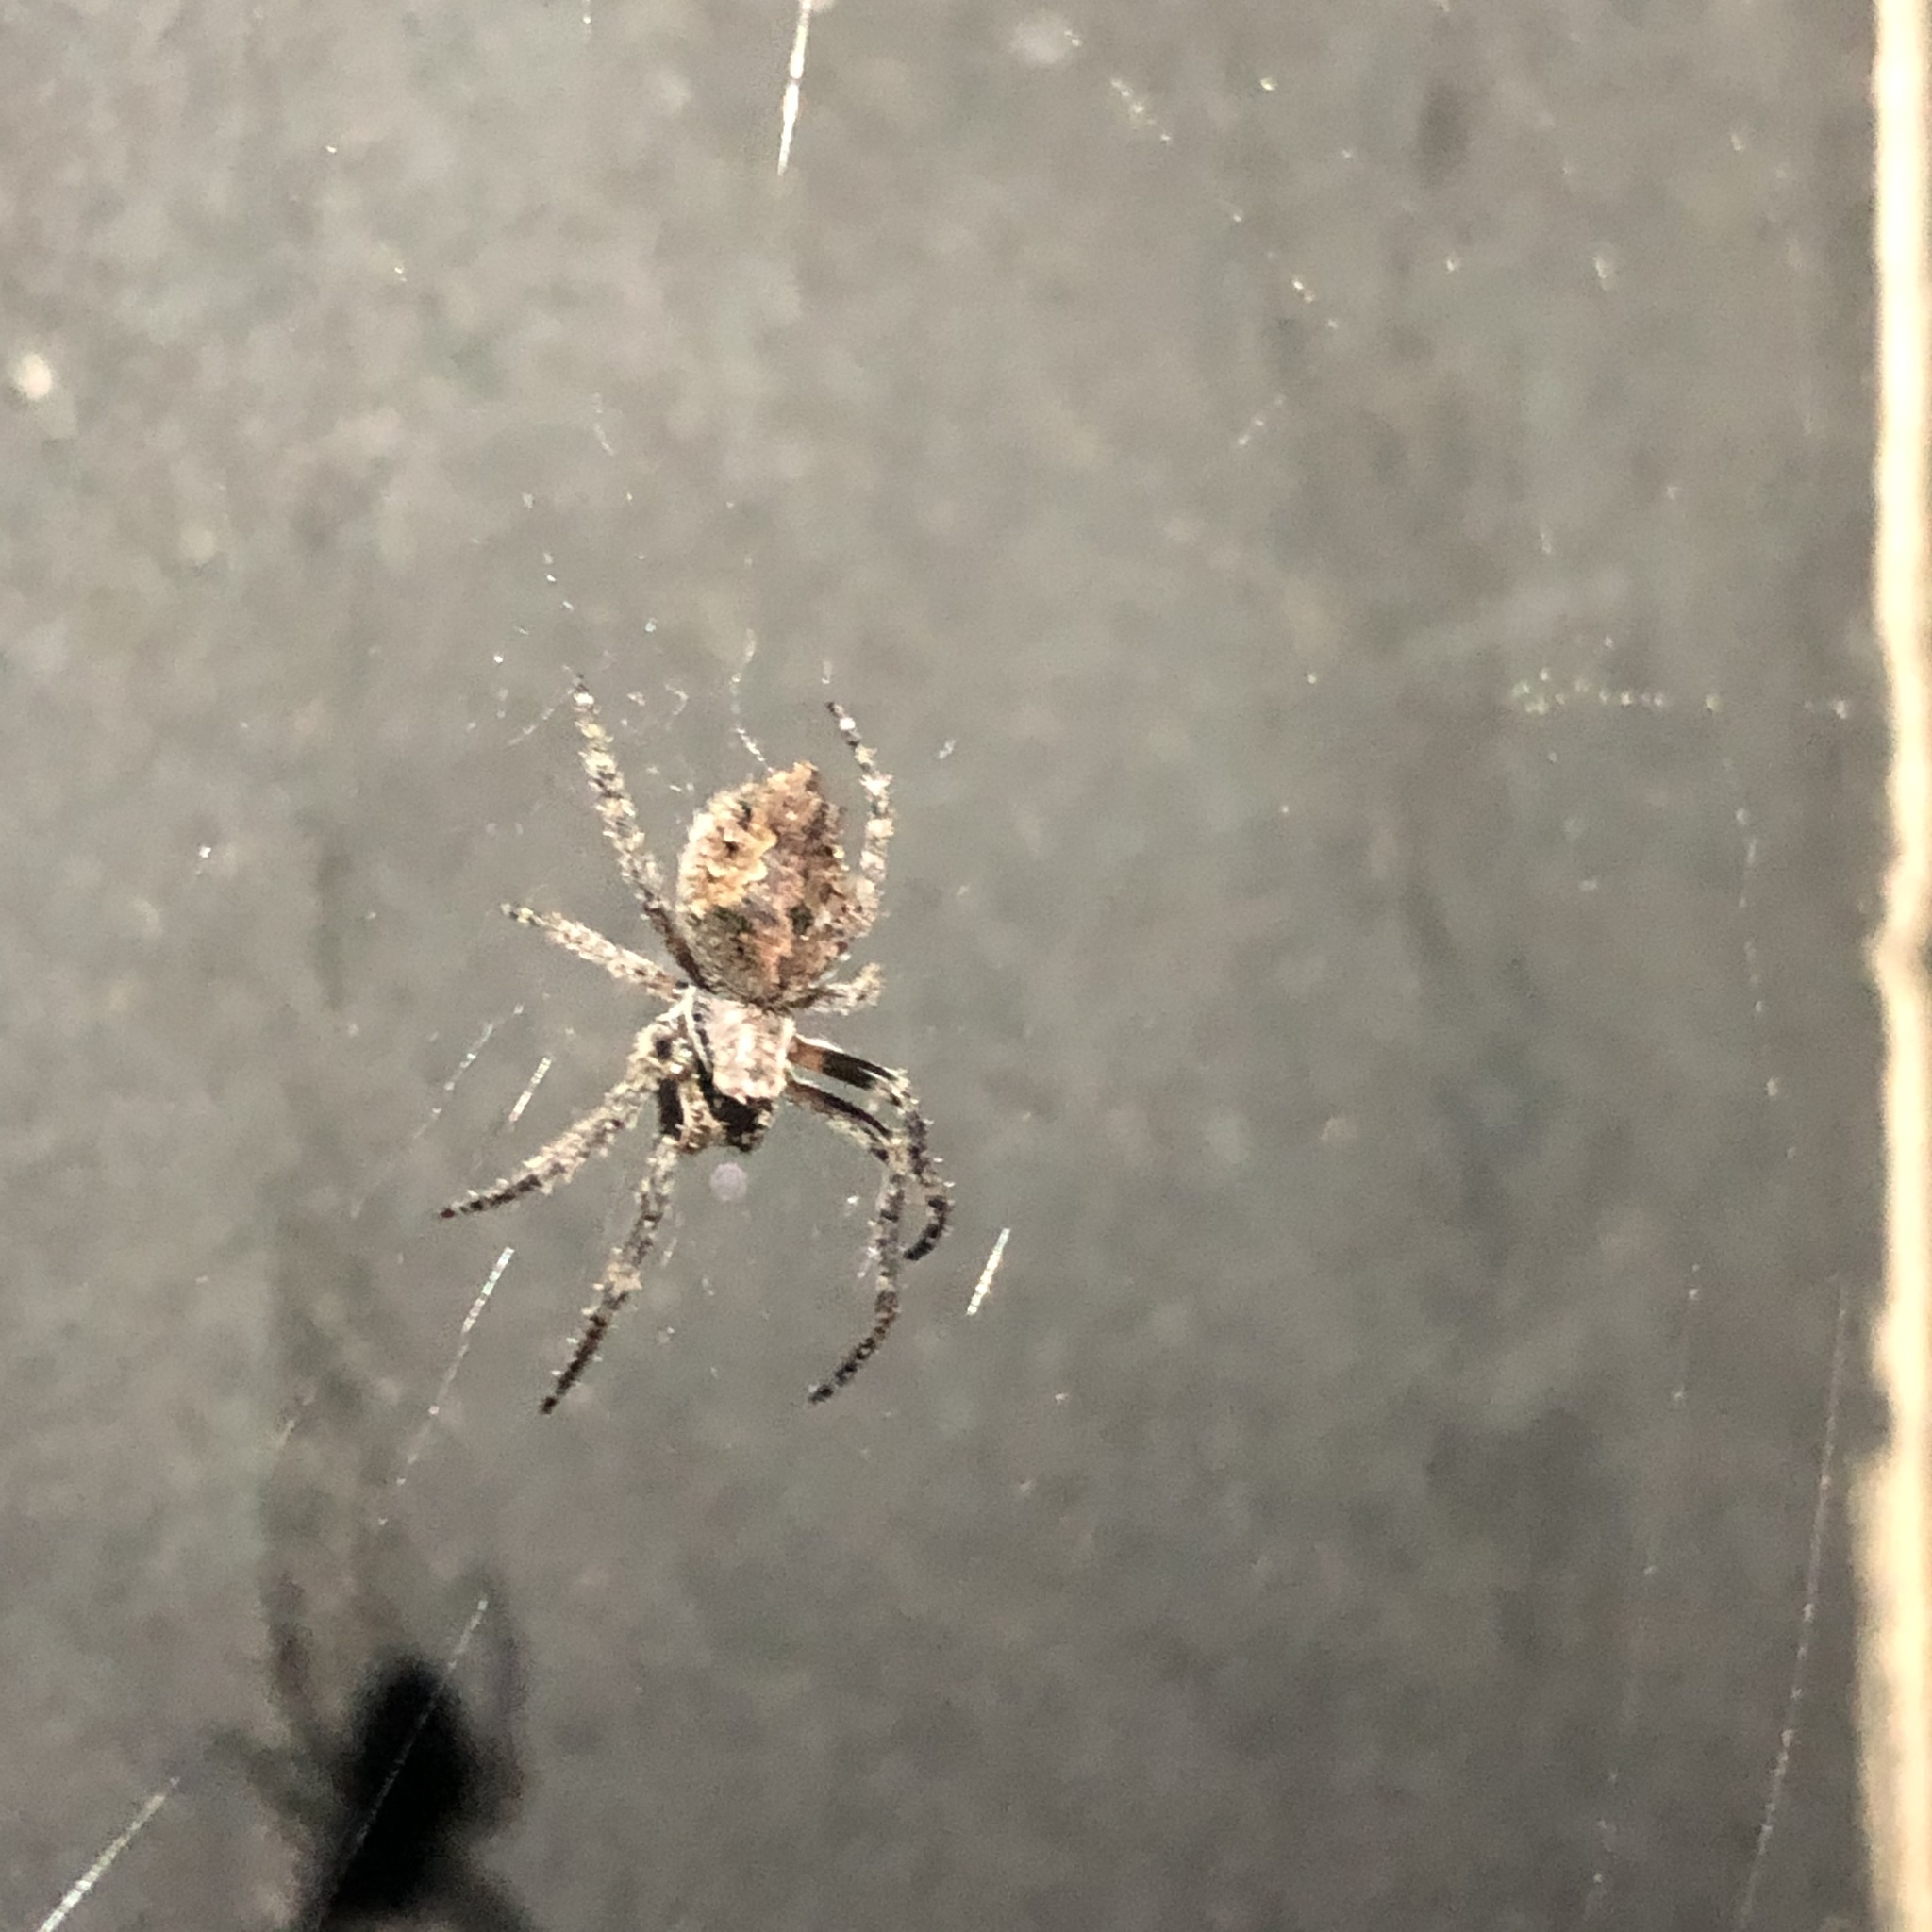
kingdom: Animalia
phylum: Arthropoda
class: Arachnida
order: Araneae
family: Araneidae
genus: Eriophora
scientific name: Eriophora pustulosa
